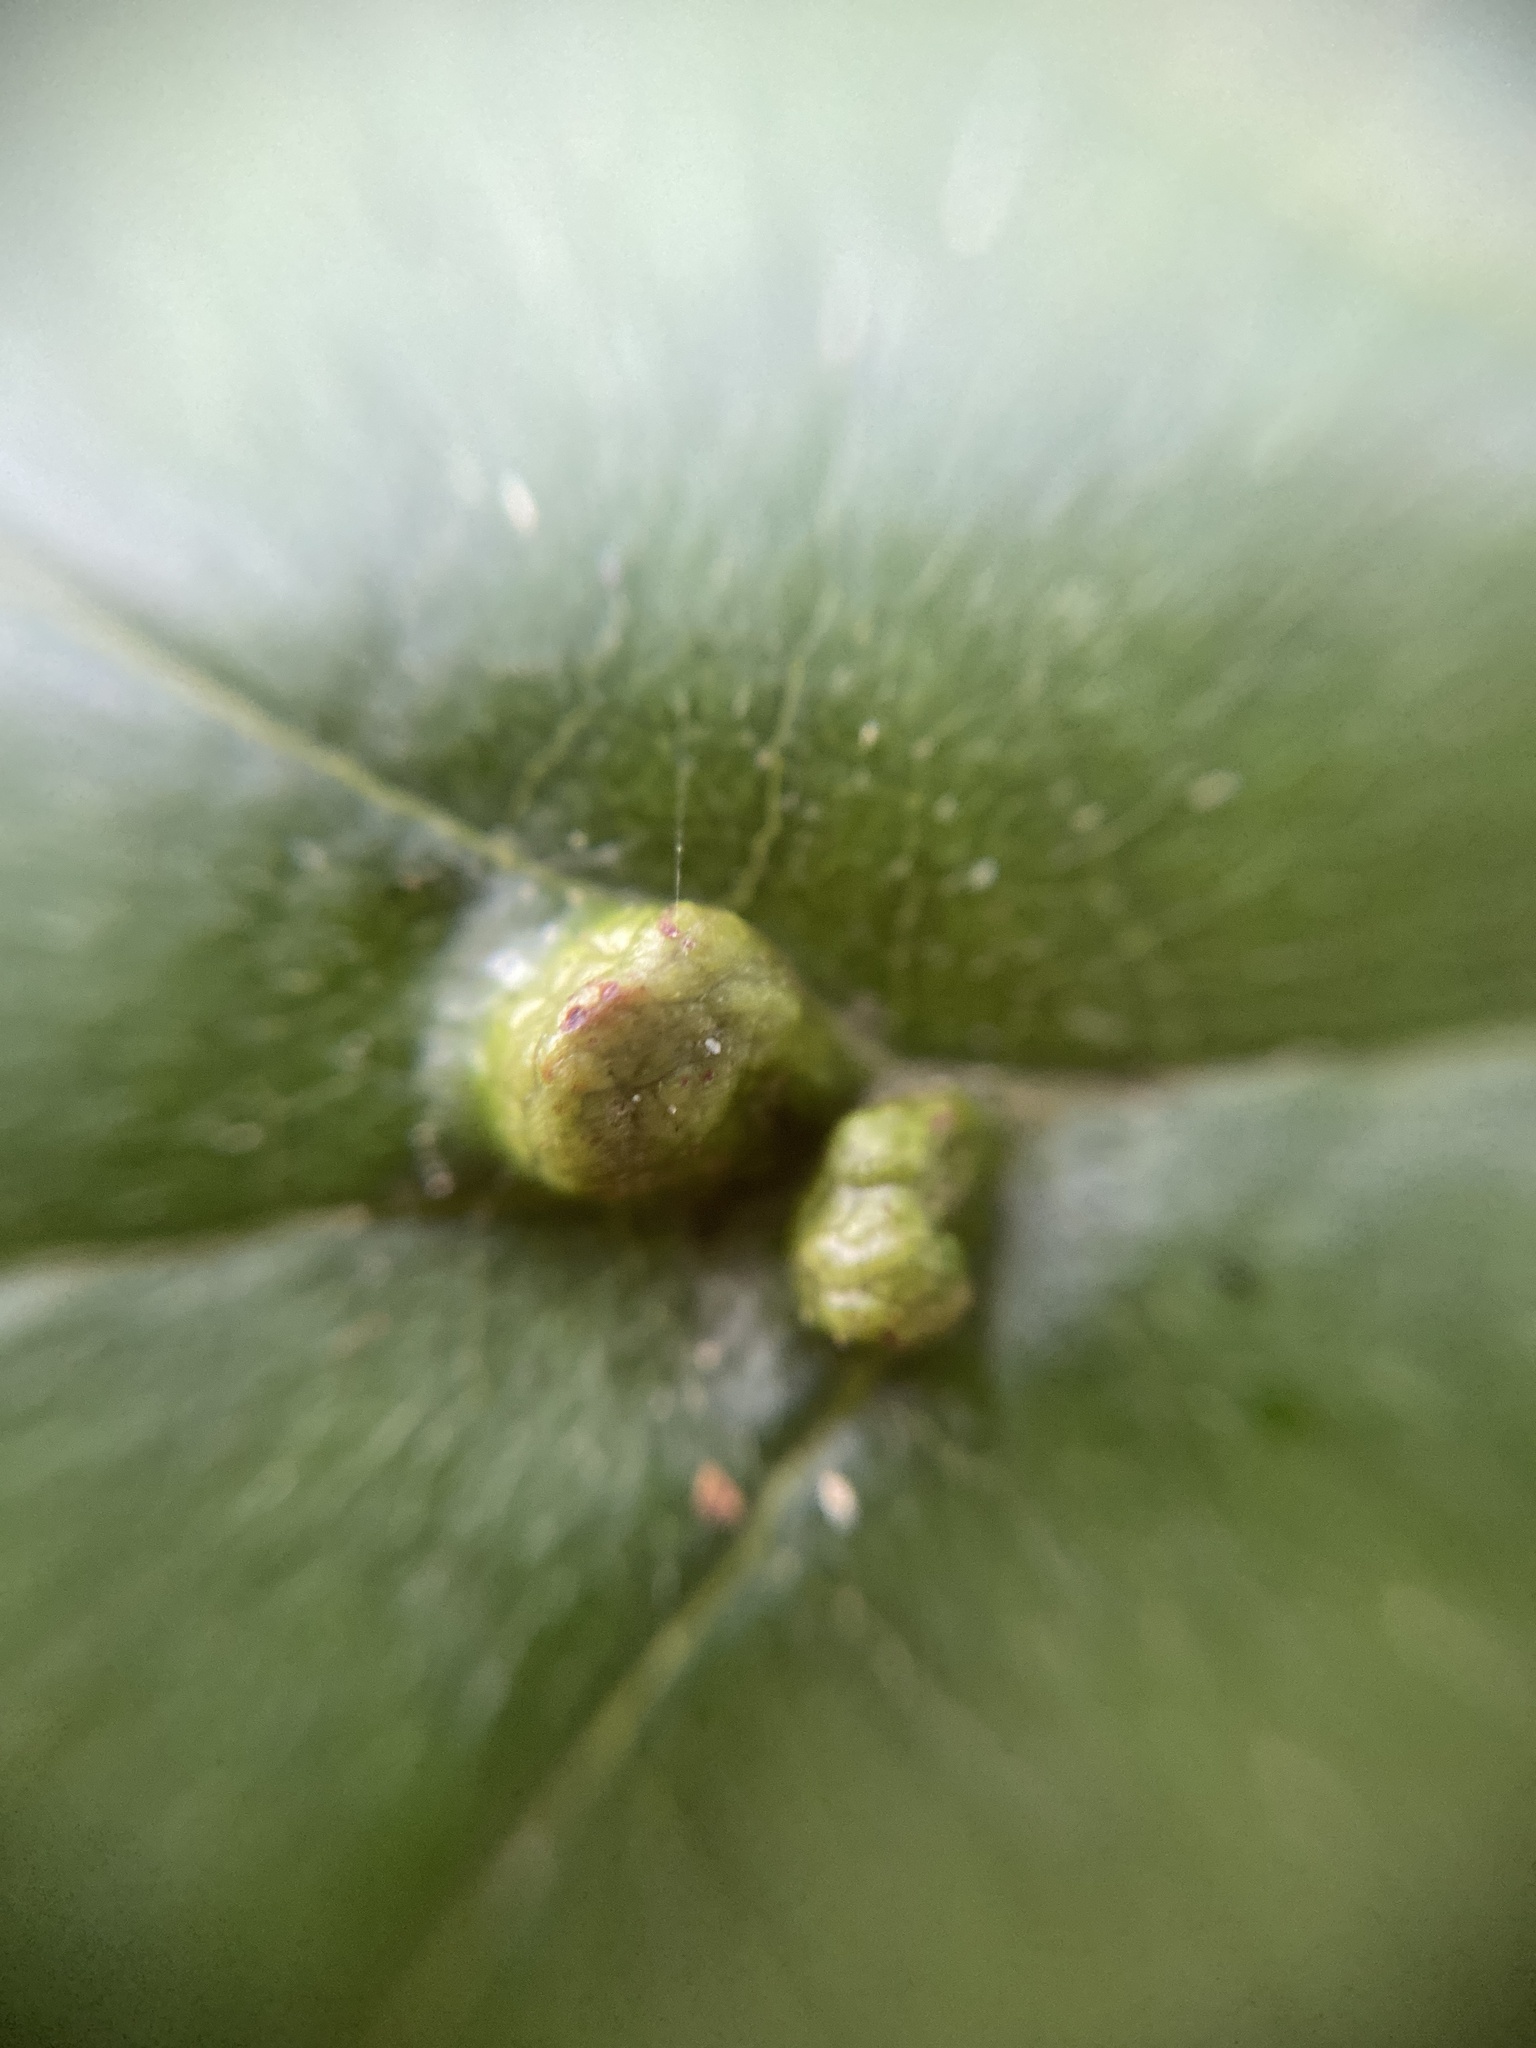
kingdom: Animalia
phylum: Arthropoda
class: Arachnida
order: Trombidiformes
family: Eriophyidae
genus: Eriophyes
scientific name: Eriophyes inangulis
